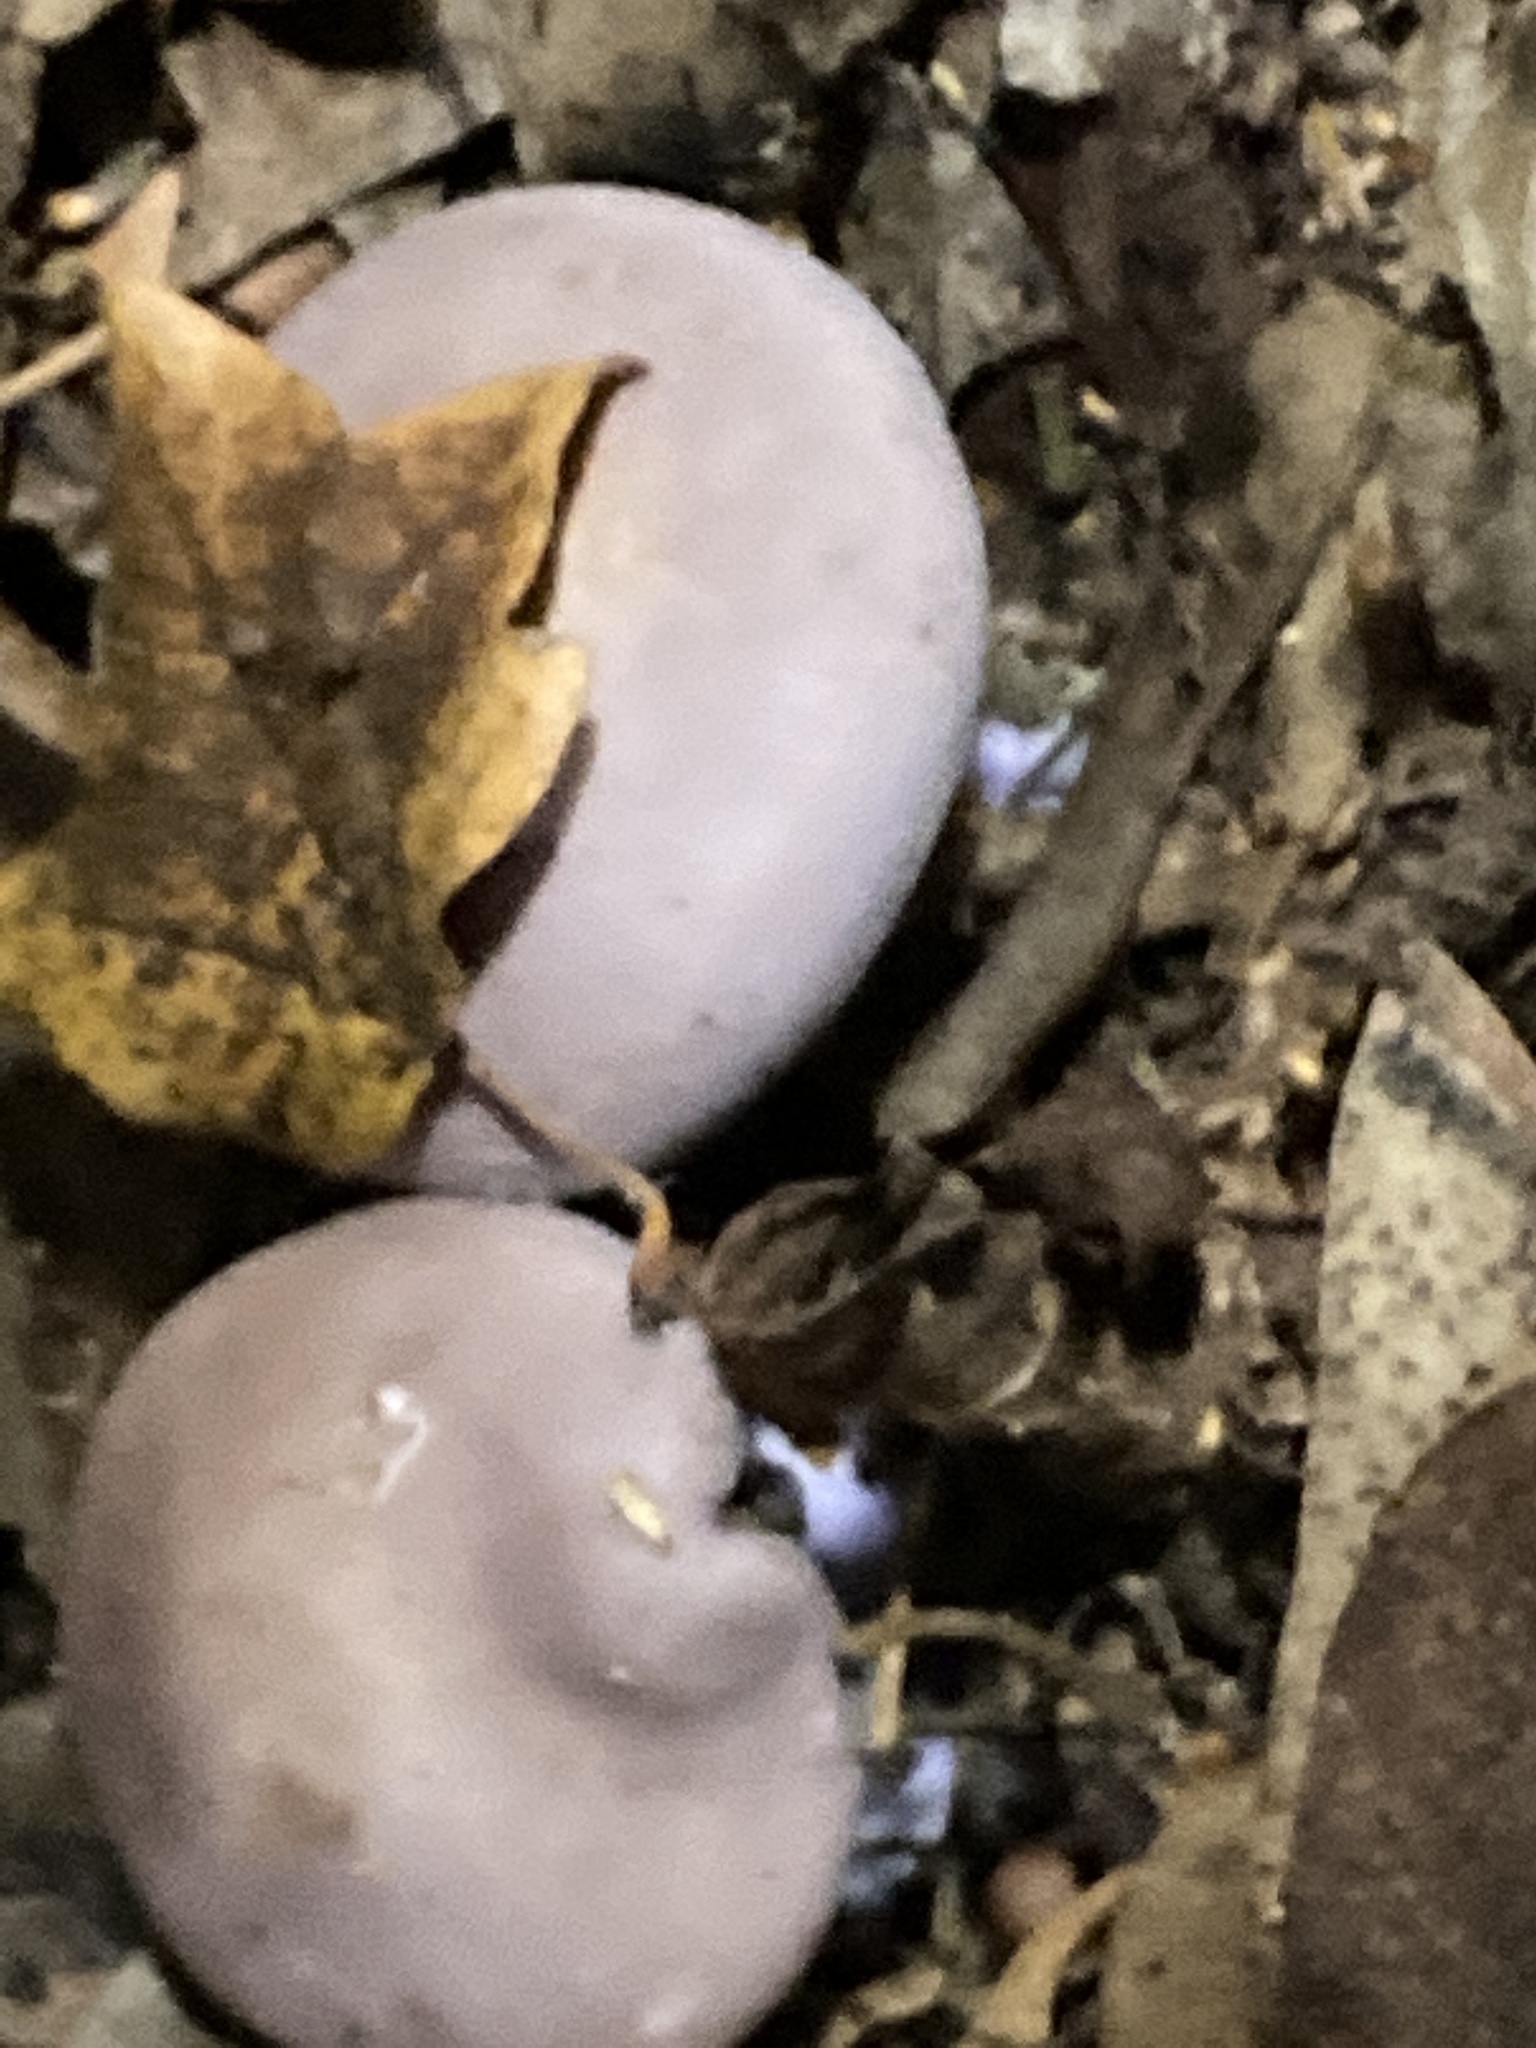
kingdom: Fungi
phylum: Basidiomycota
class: Agaricomycetes
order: Agaricales
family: Tricholomataceae
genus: Collybia
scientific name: Collybia
